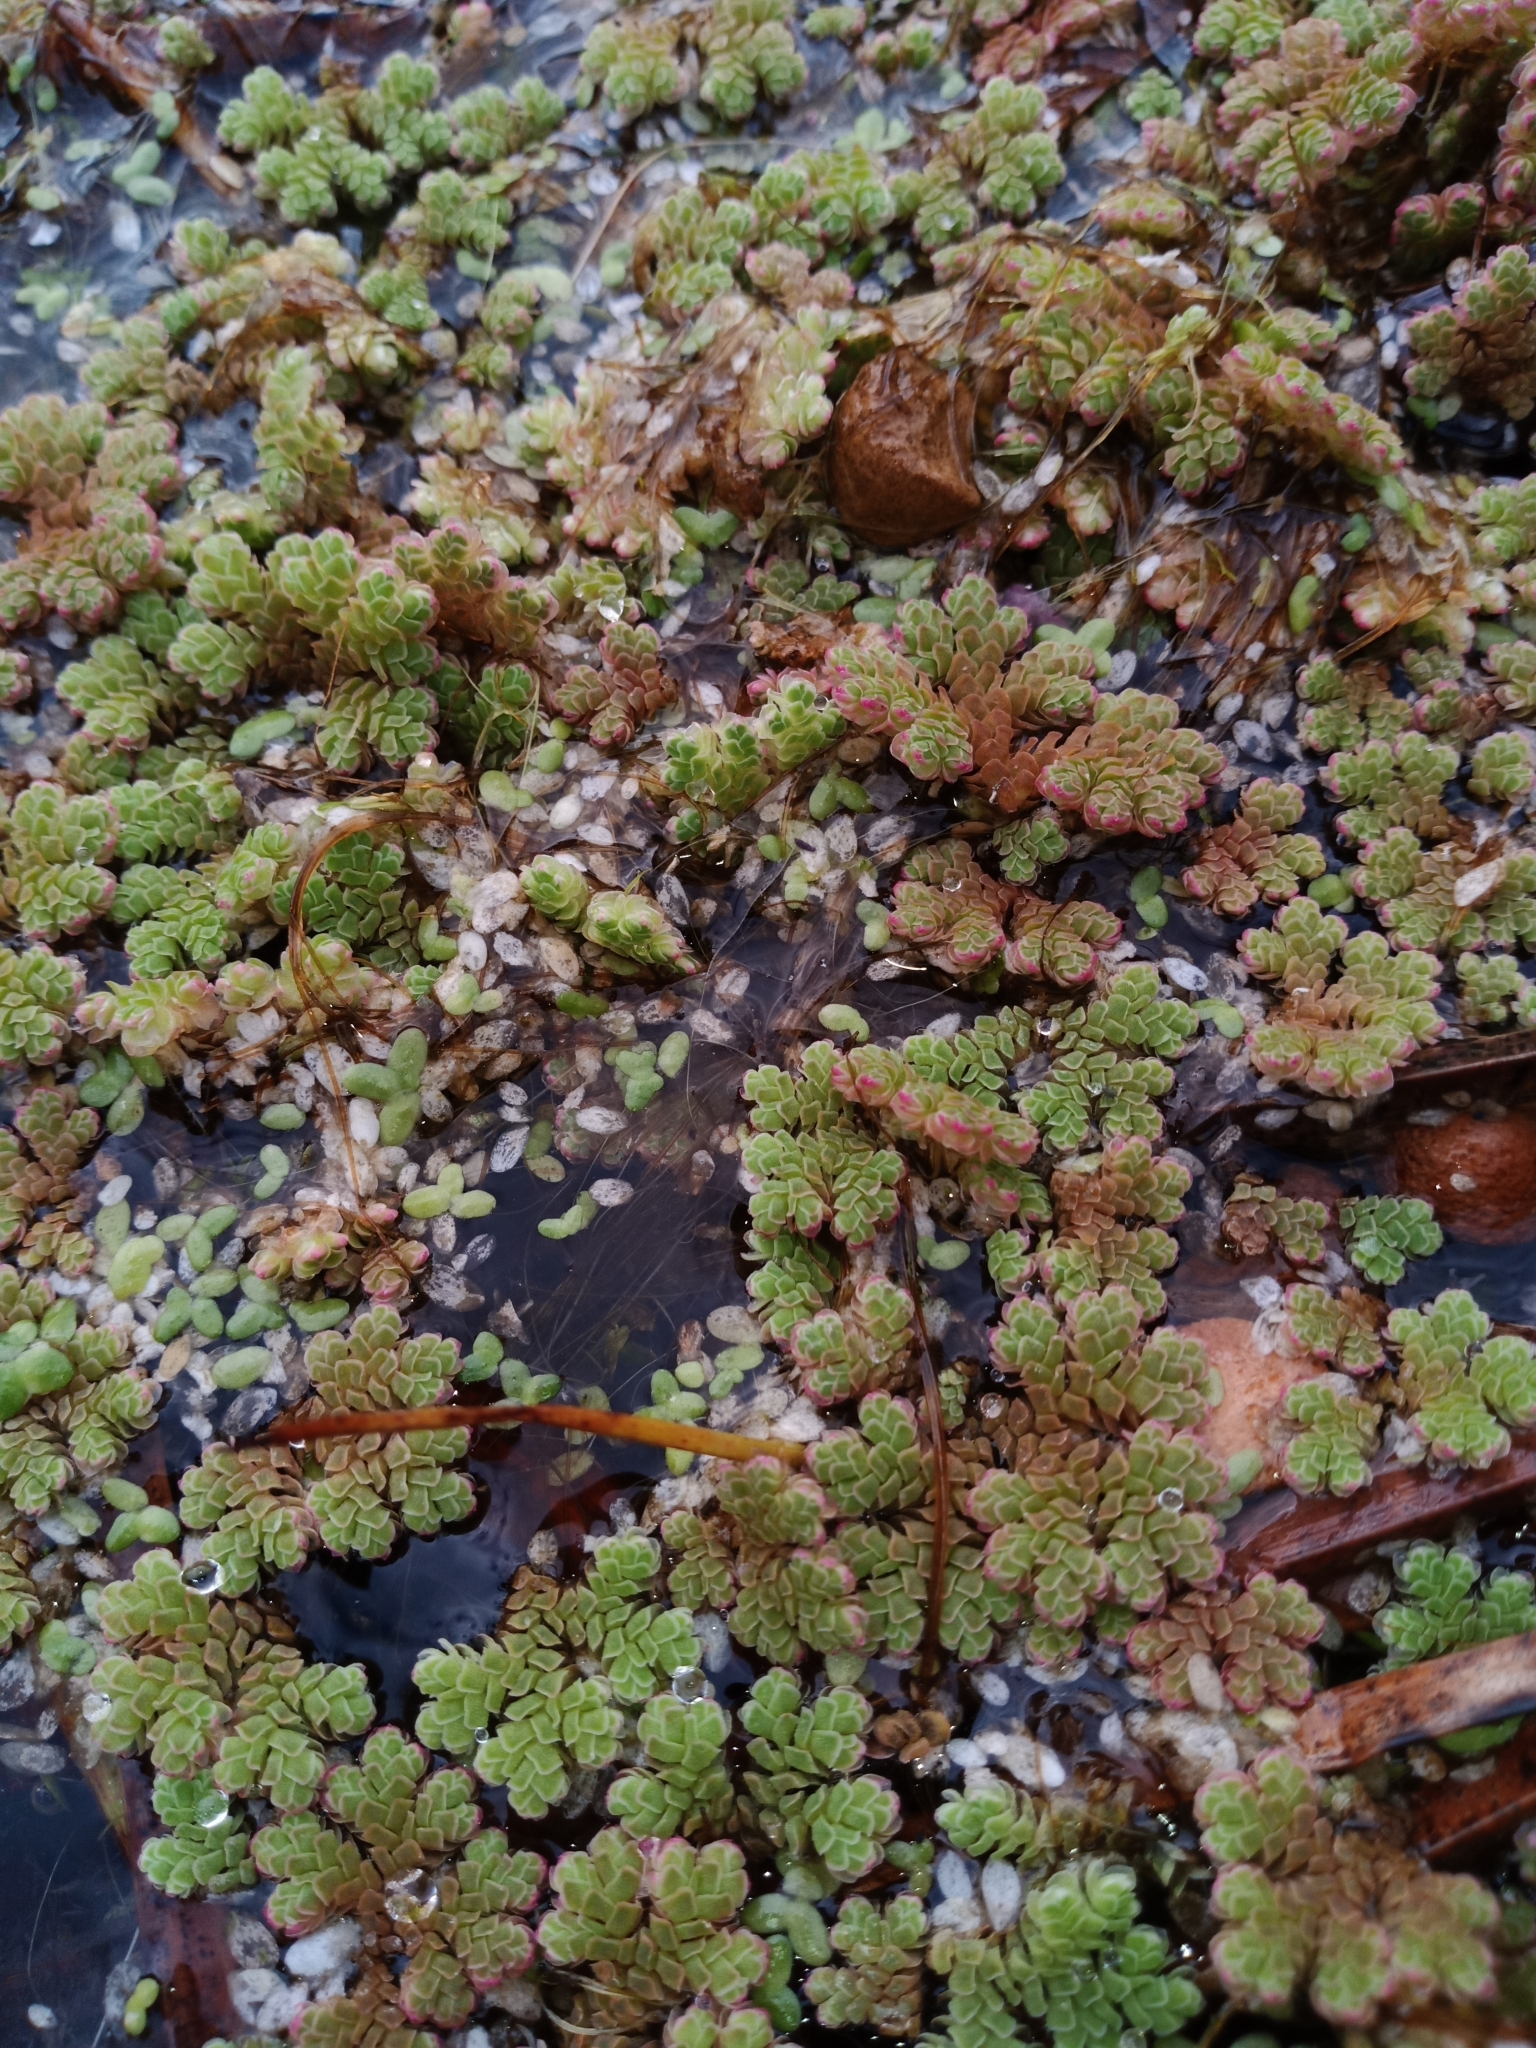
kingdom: Plantae
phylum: Tracheophyta
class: Polypodiopsida
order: Salviniales
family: Salviniaceae
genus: Azolla
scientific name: Azolla rubra
